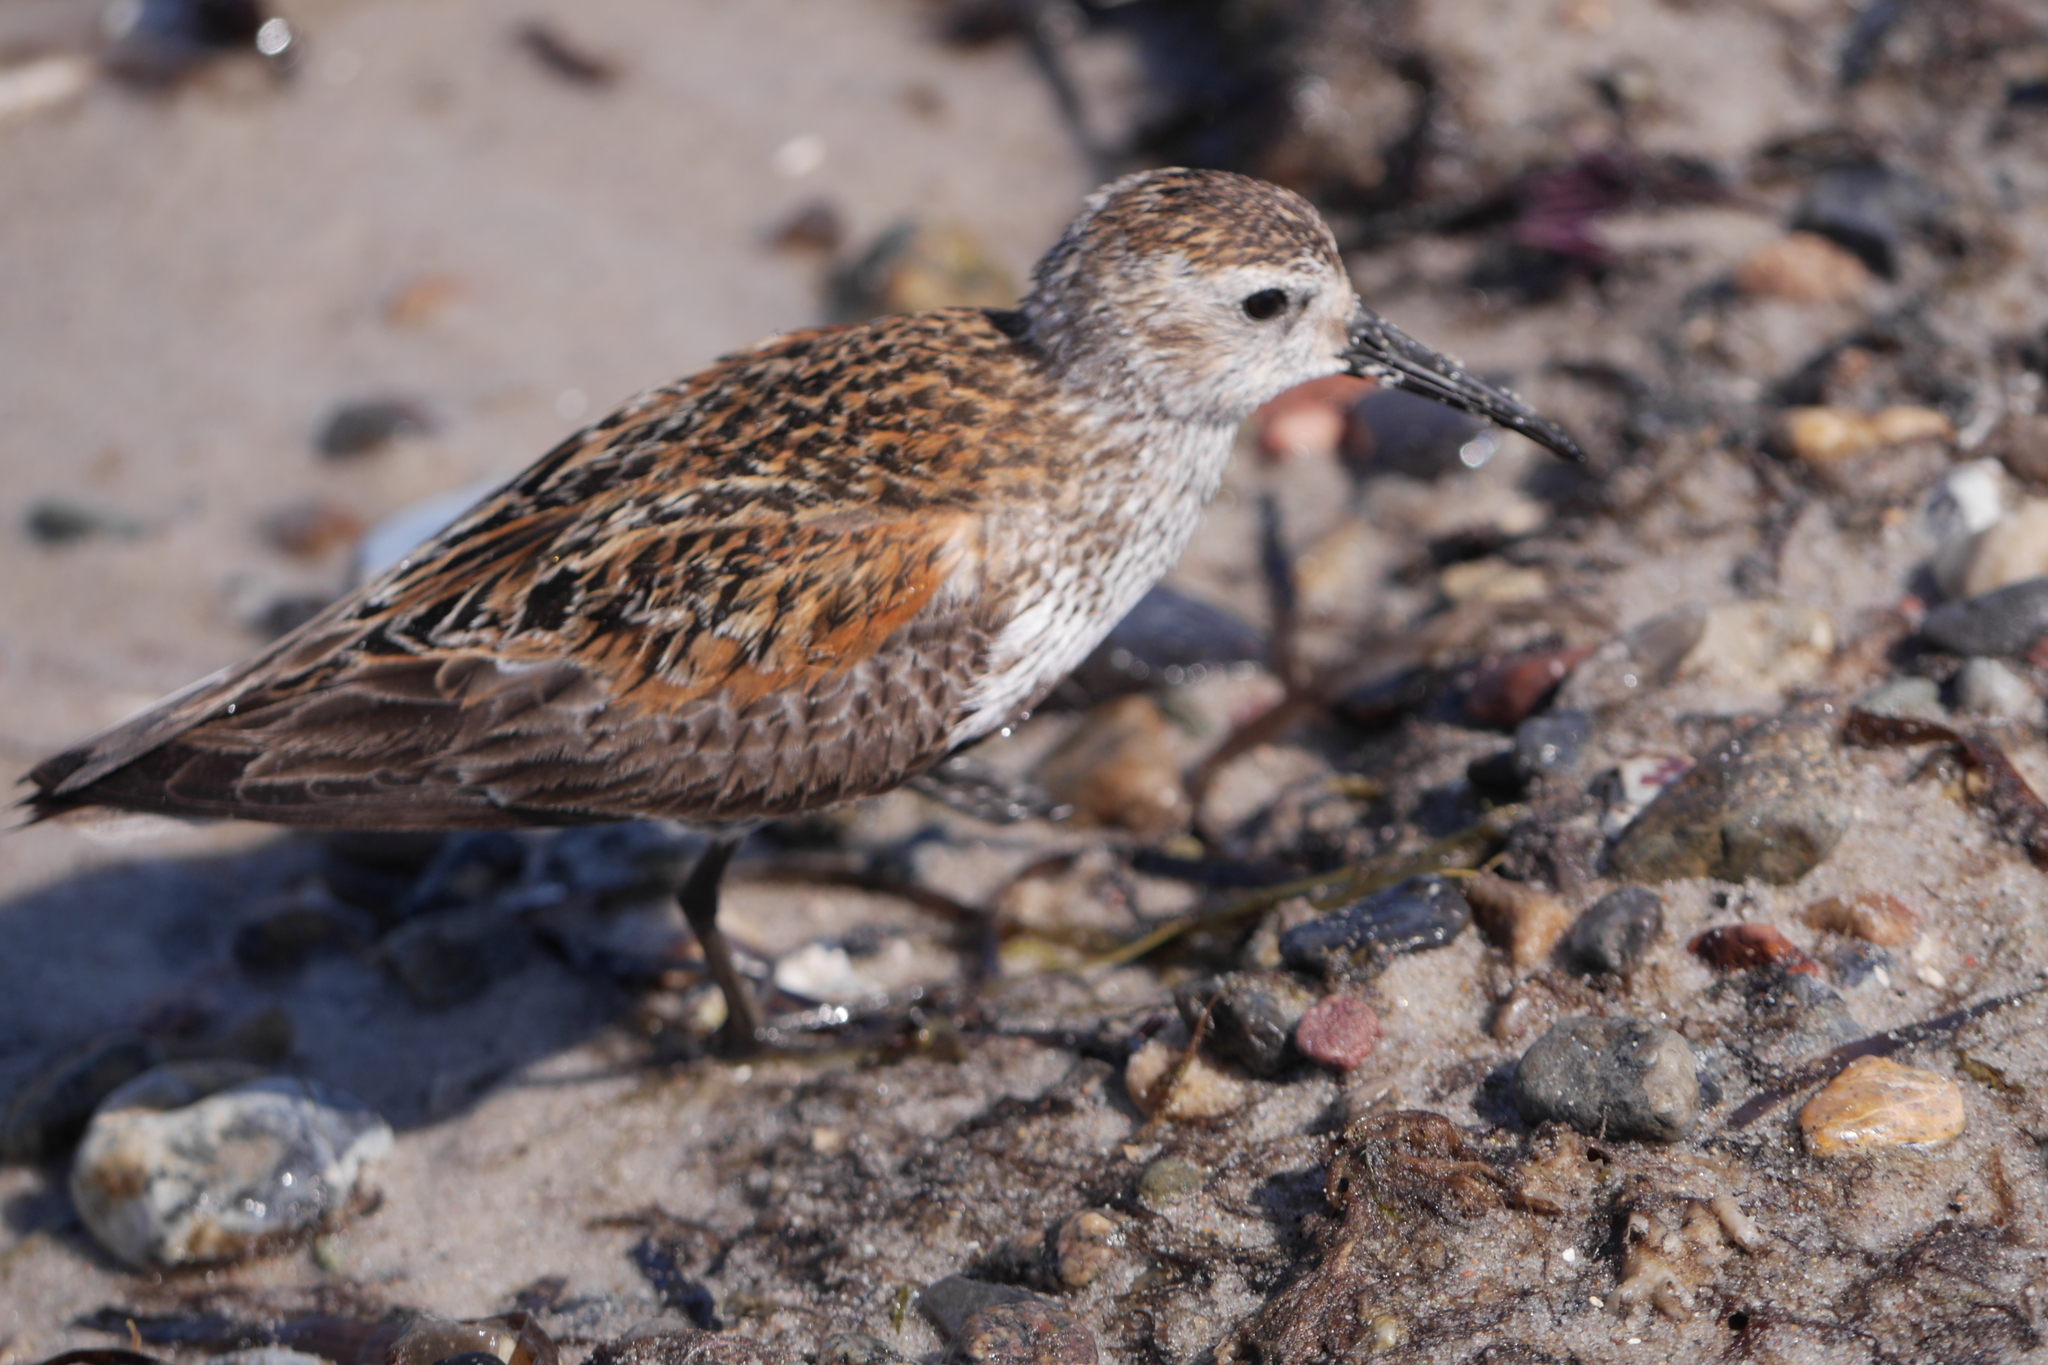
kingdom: Animalia
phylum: Chordata
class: Aves
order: Charadriiformes
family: Scolopacidae
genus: Calidris
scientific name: Calidris alpina
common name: Dunlin
